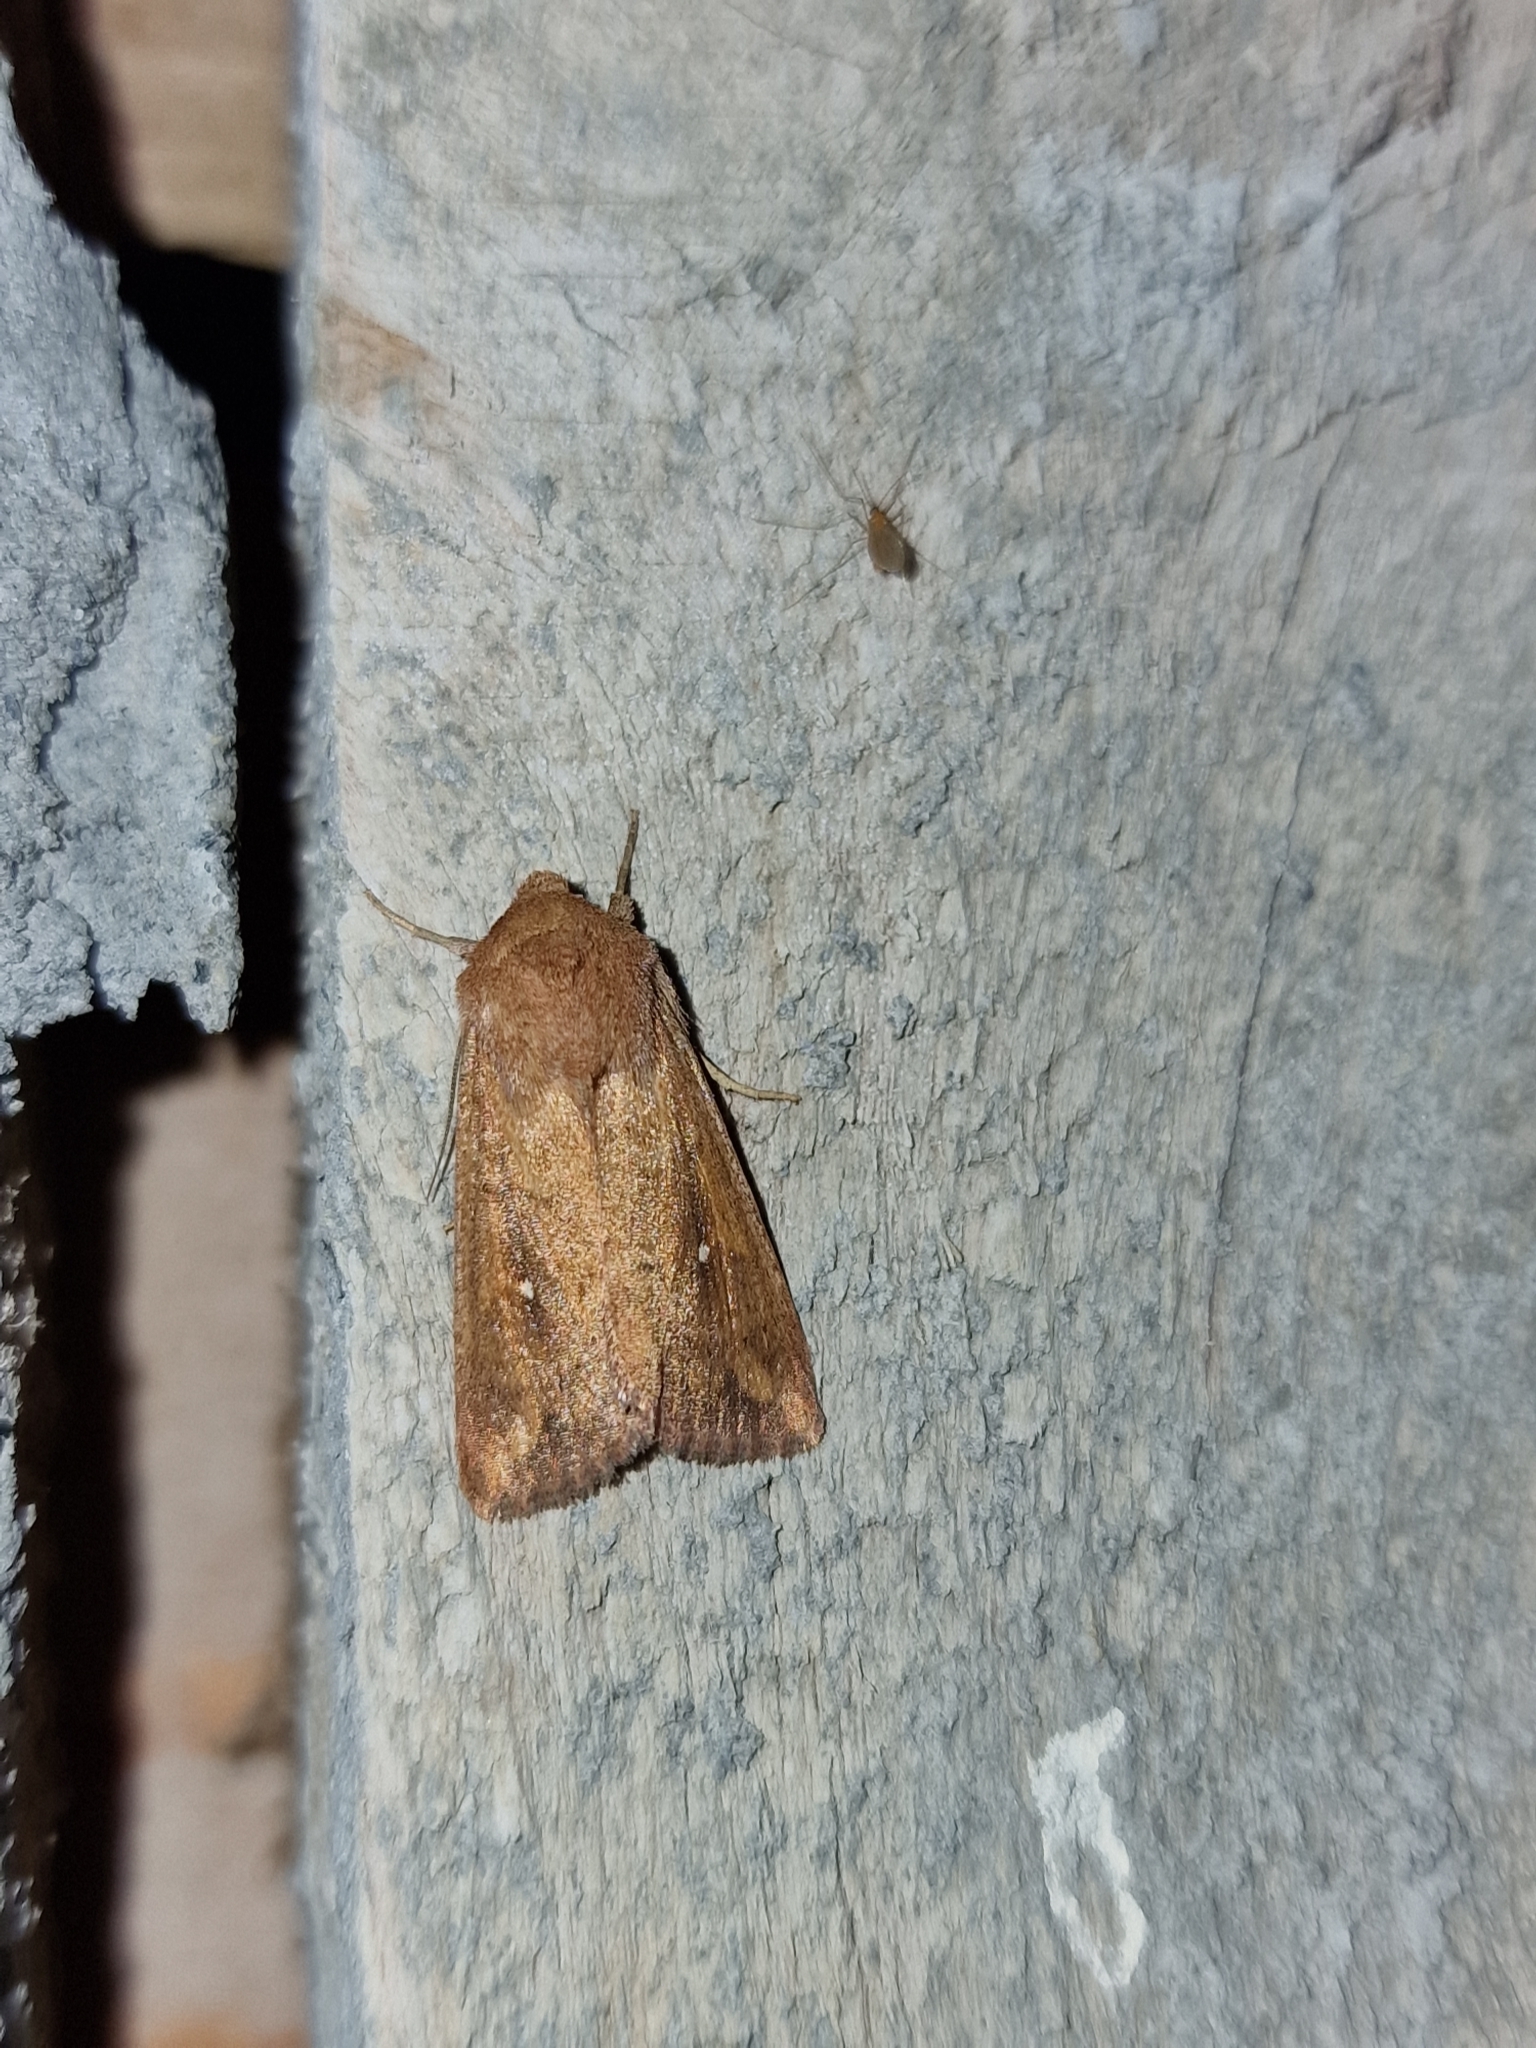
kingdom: Animalia
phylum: Arthropoda
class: Insecta
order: Lepidoptera
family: Noctuidae
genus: Mythimna
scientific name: Mythimna albipuncta
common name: White-point
